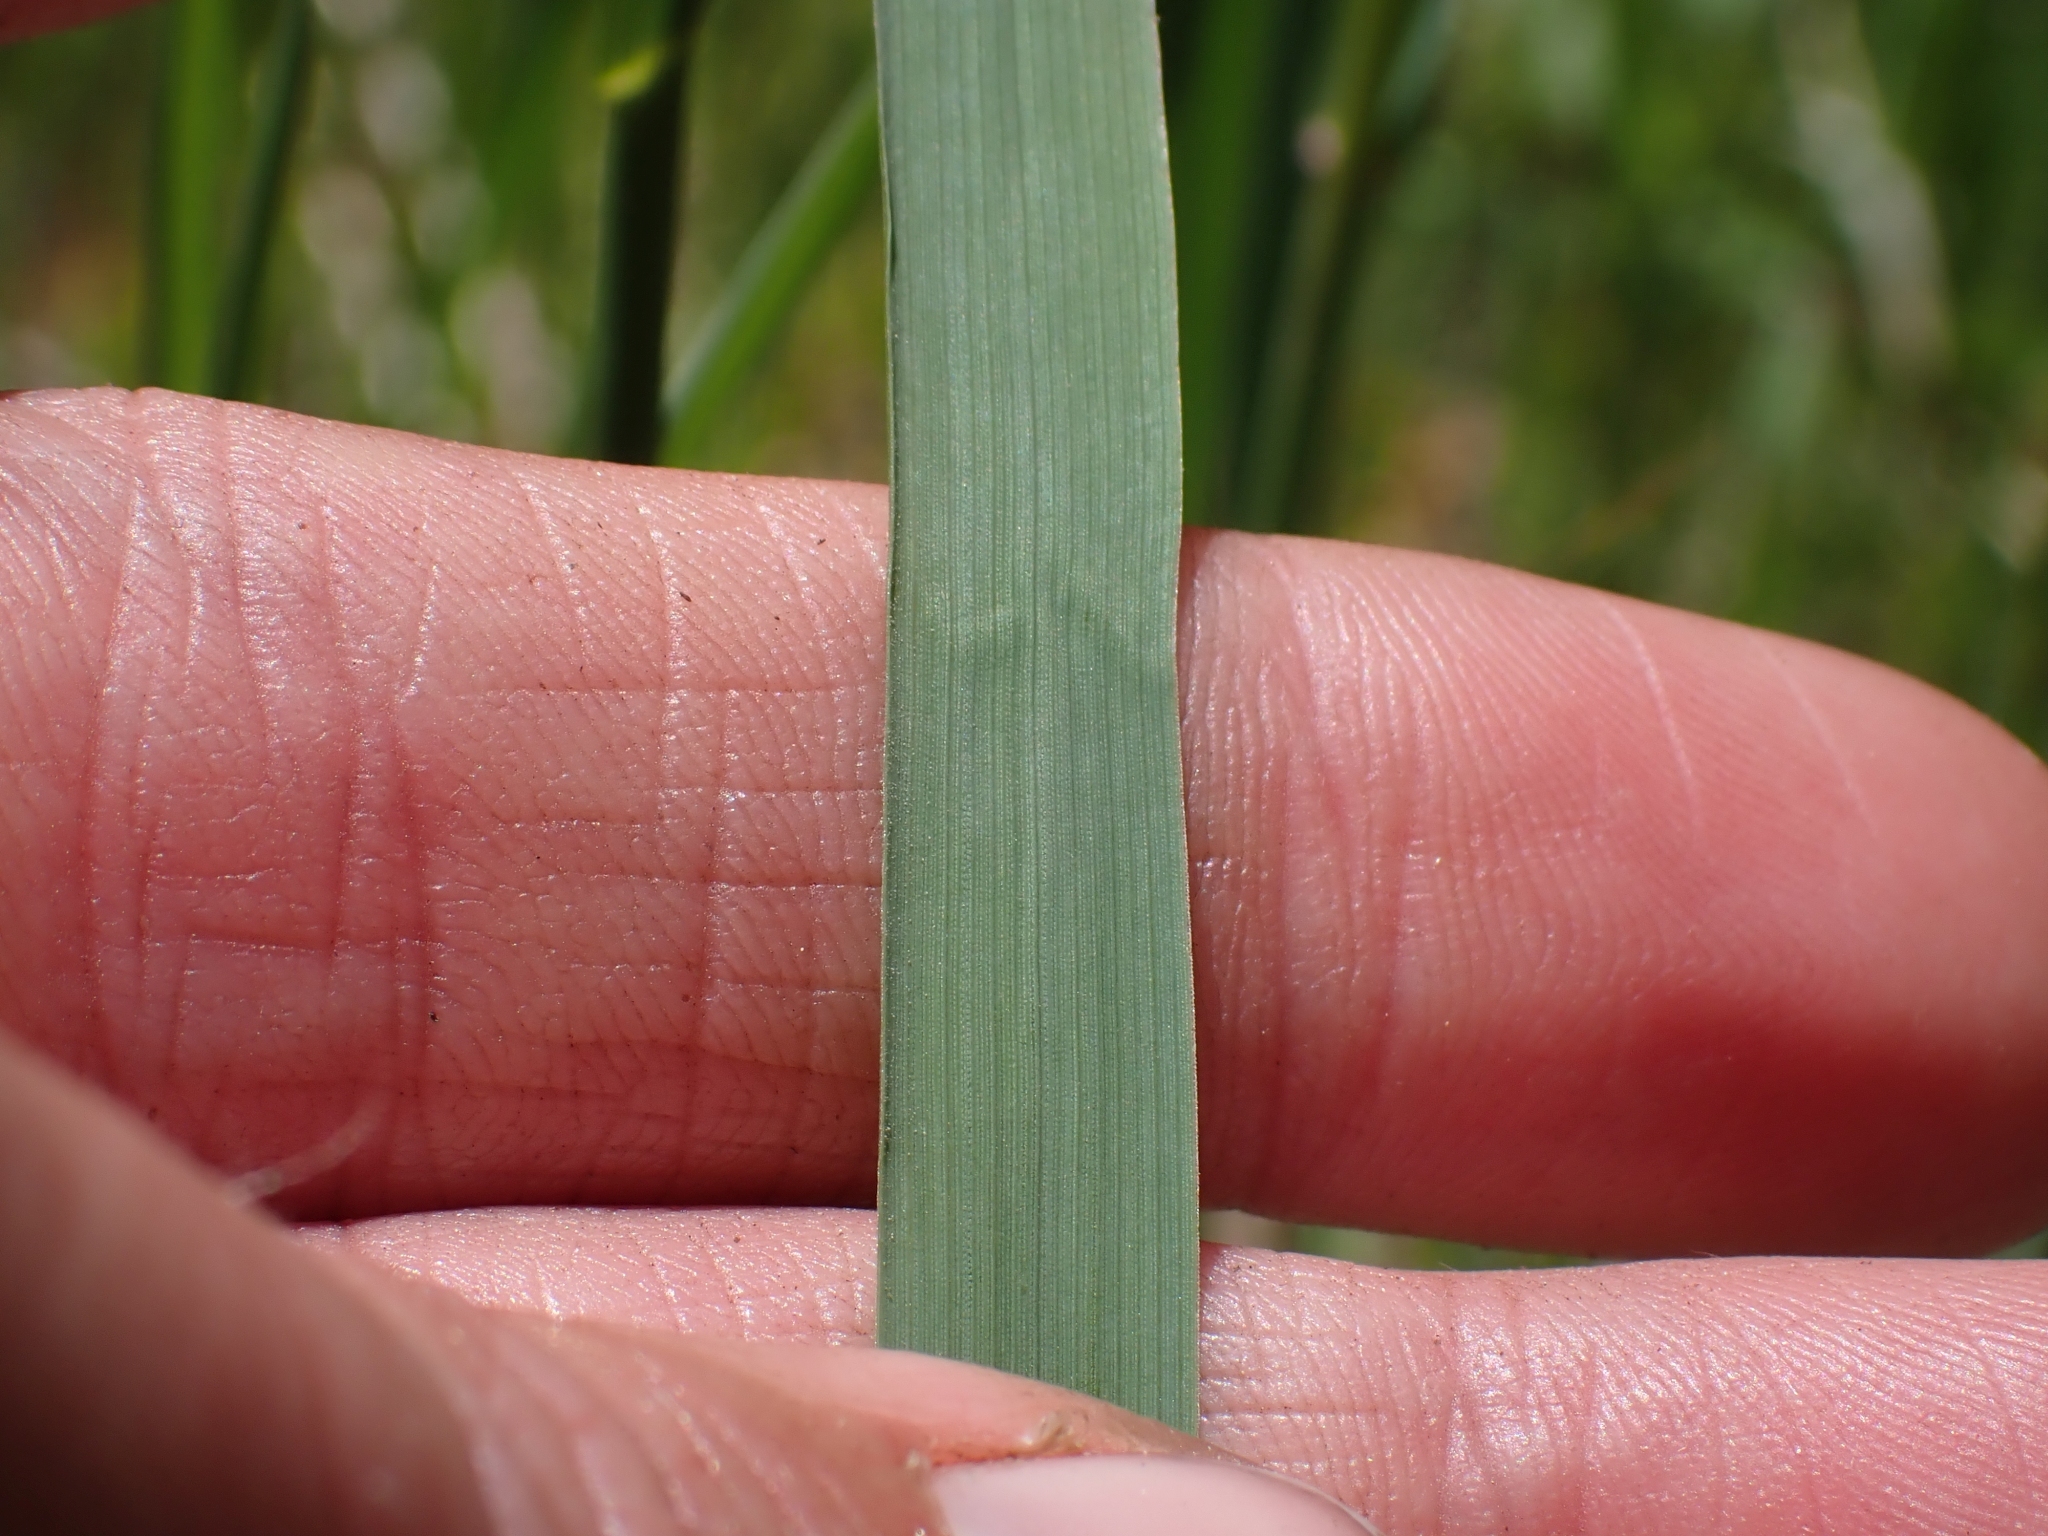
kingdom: Plantae
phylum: Tracheophyta
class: Liliopsida
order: Poales
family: Poaceae
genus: Bromus
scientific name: Bromus inermis
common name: Smooth brome
